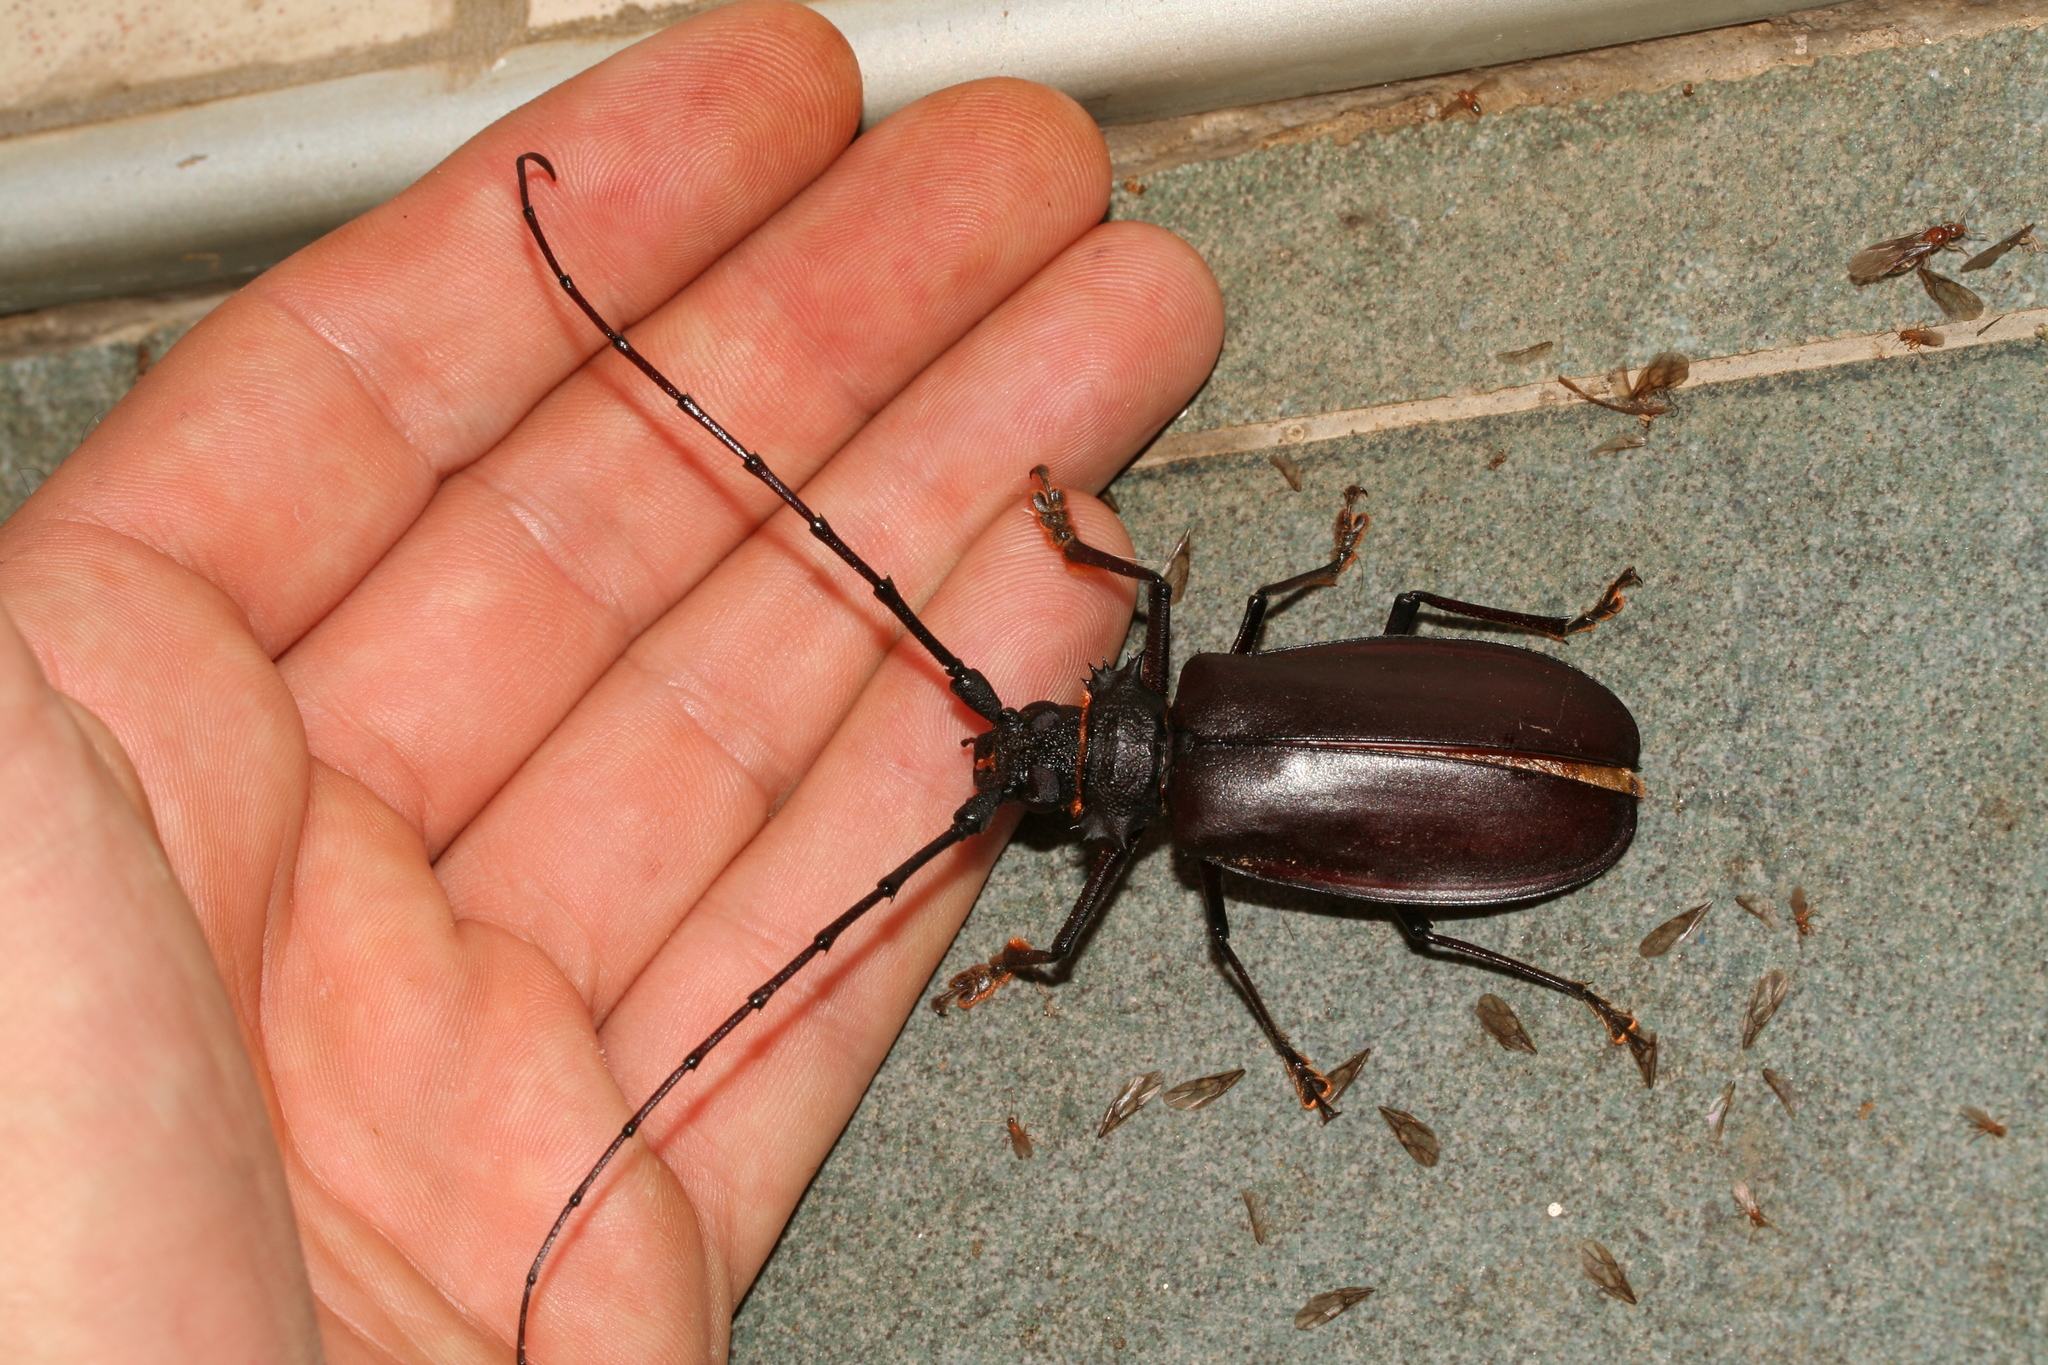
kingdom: Animalia
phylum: Arthropoda
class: Insecta
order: Coleoptera
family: Cerambycidae
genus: Hoplideres
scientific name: Hoplideres spinipennis
